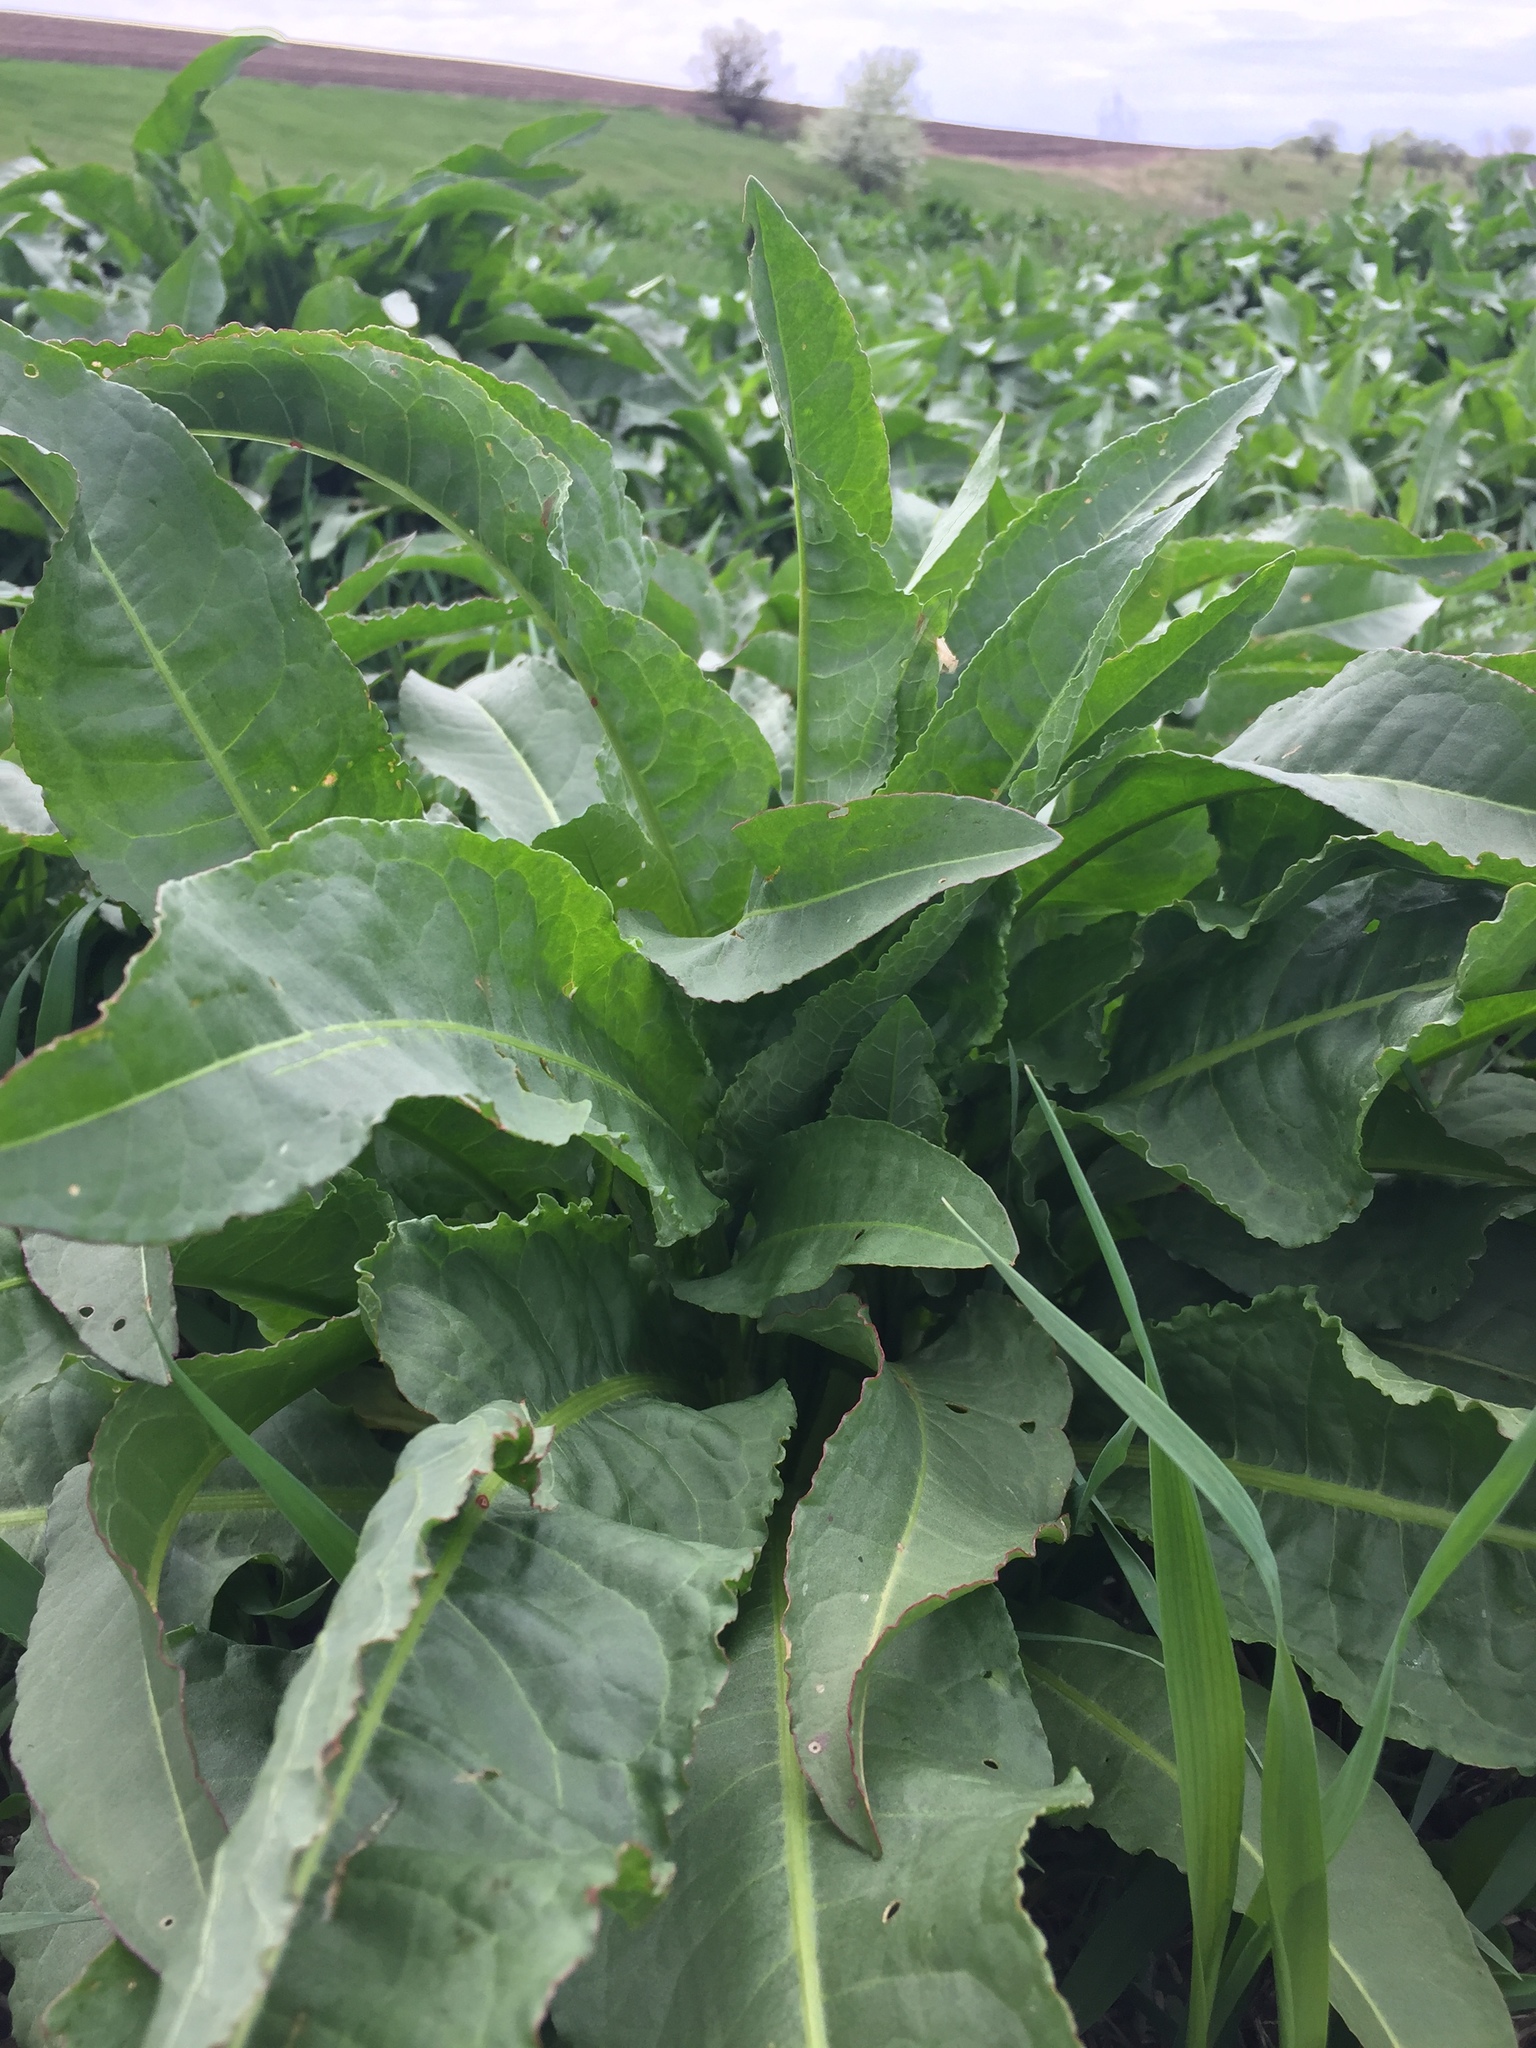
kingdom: Plantae
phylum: Tracheophyta
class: Magnoliopsida
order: Caryophyllales
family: Polygonaceae
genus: Rumex
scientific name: Rumex crispus
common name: Curled dock
